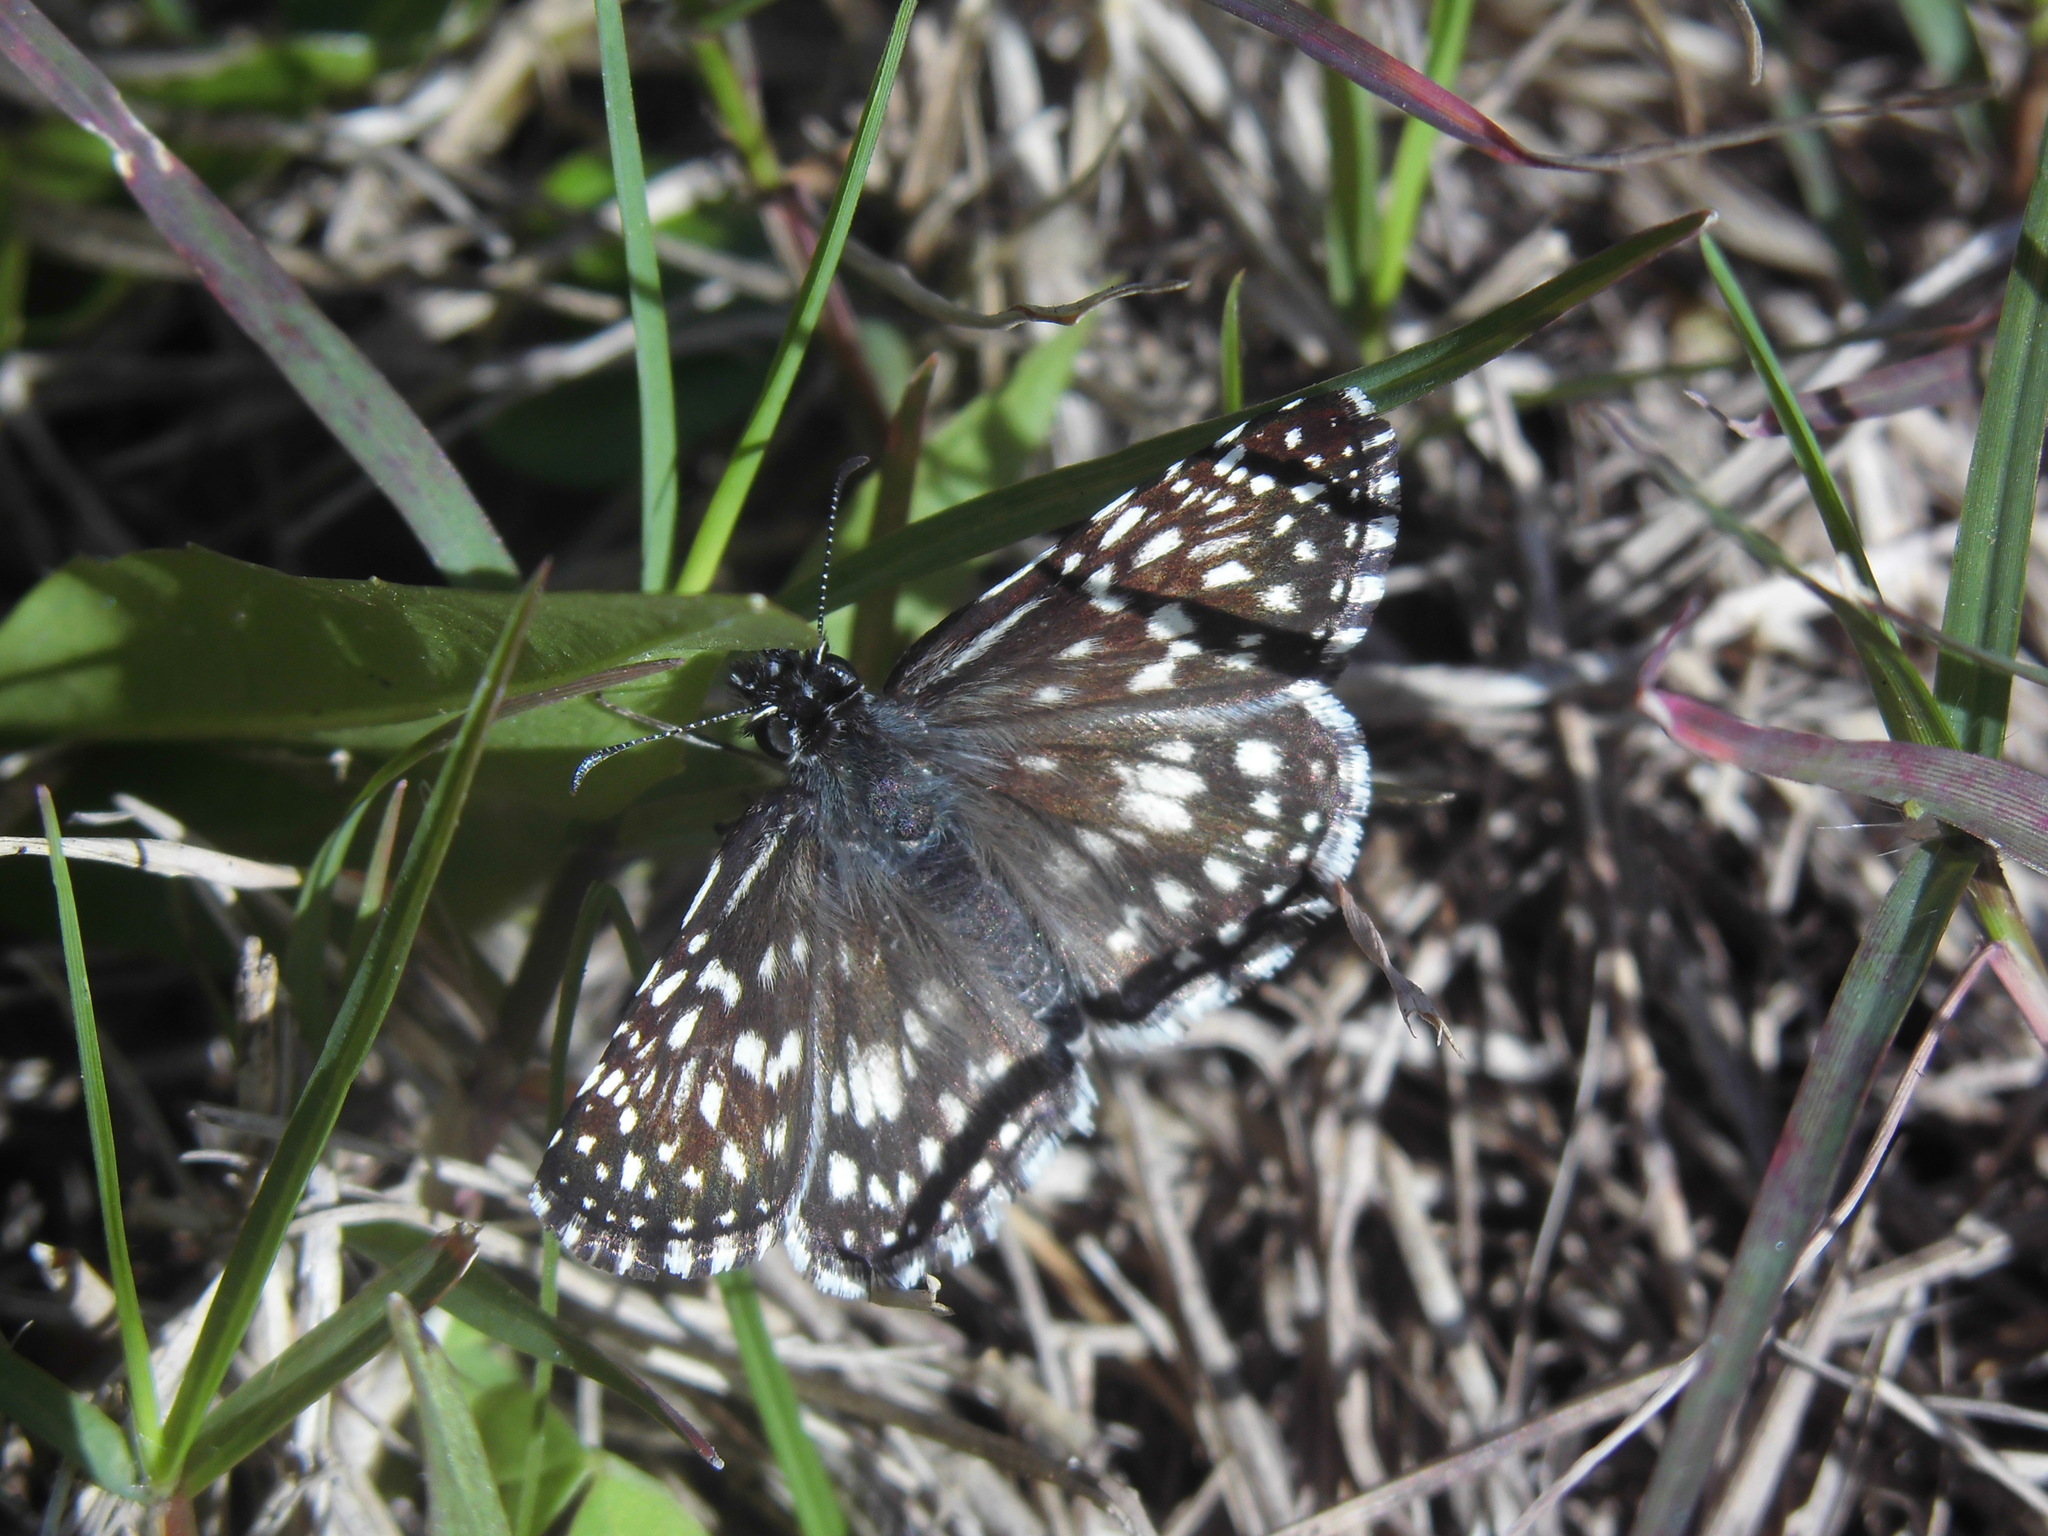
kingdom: Animalia
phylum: Arthropoda
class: Insecta
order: Lepidoptera
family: Hesperiidae
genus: Pyrgus
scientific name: Pyrgus oileus
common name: Tropical checkered-skipper
